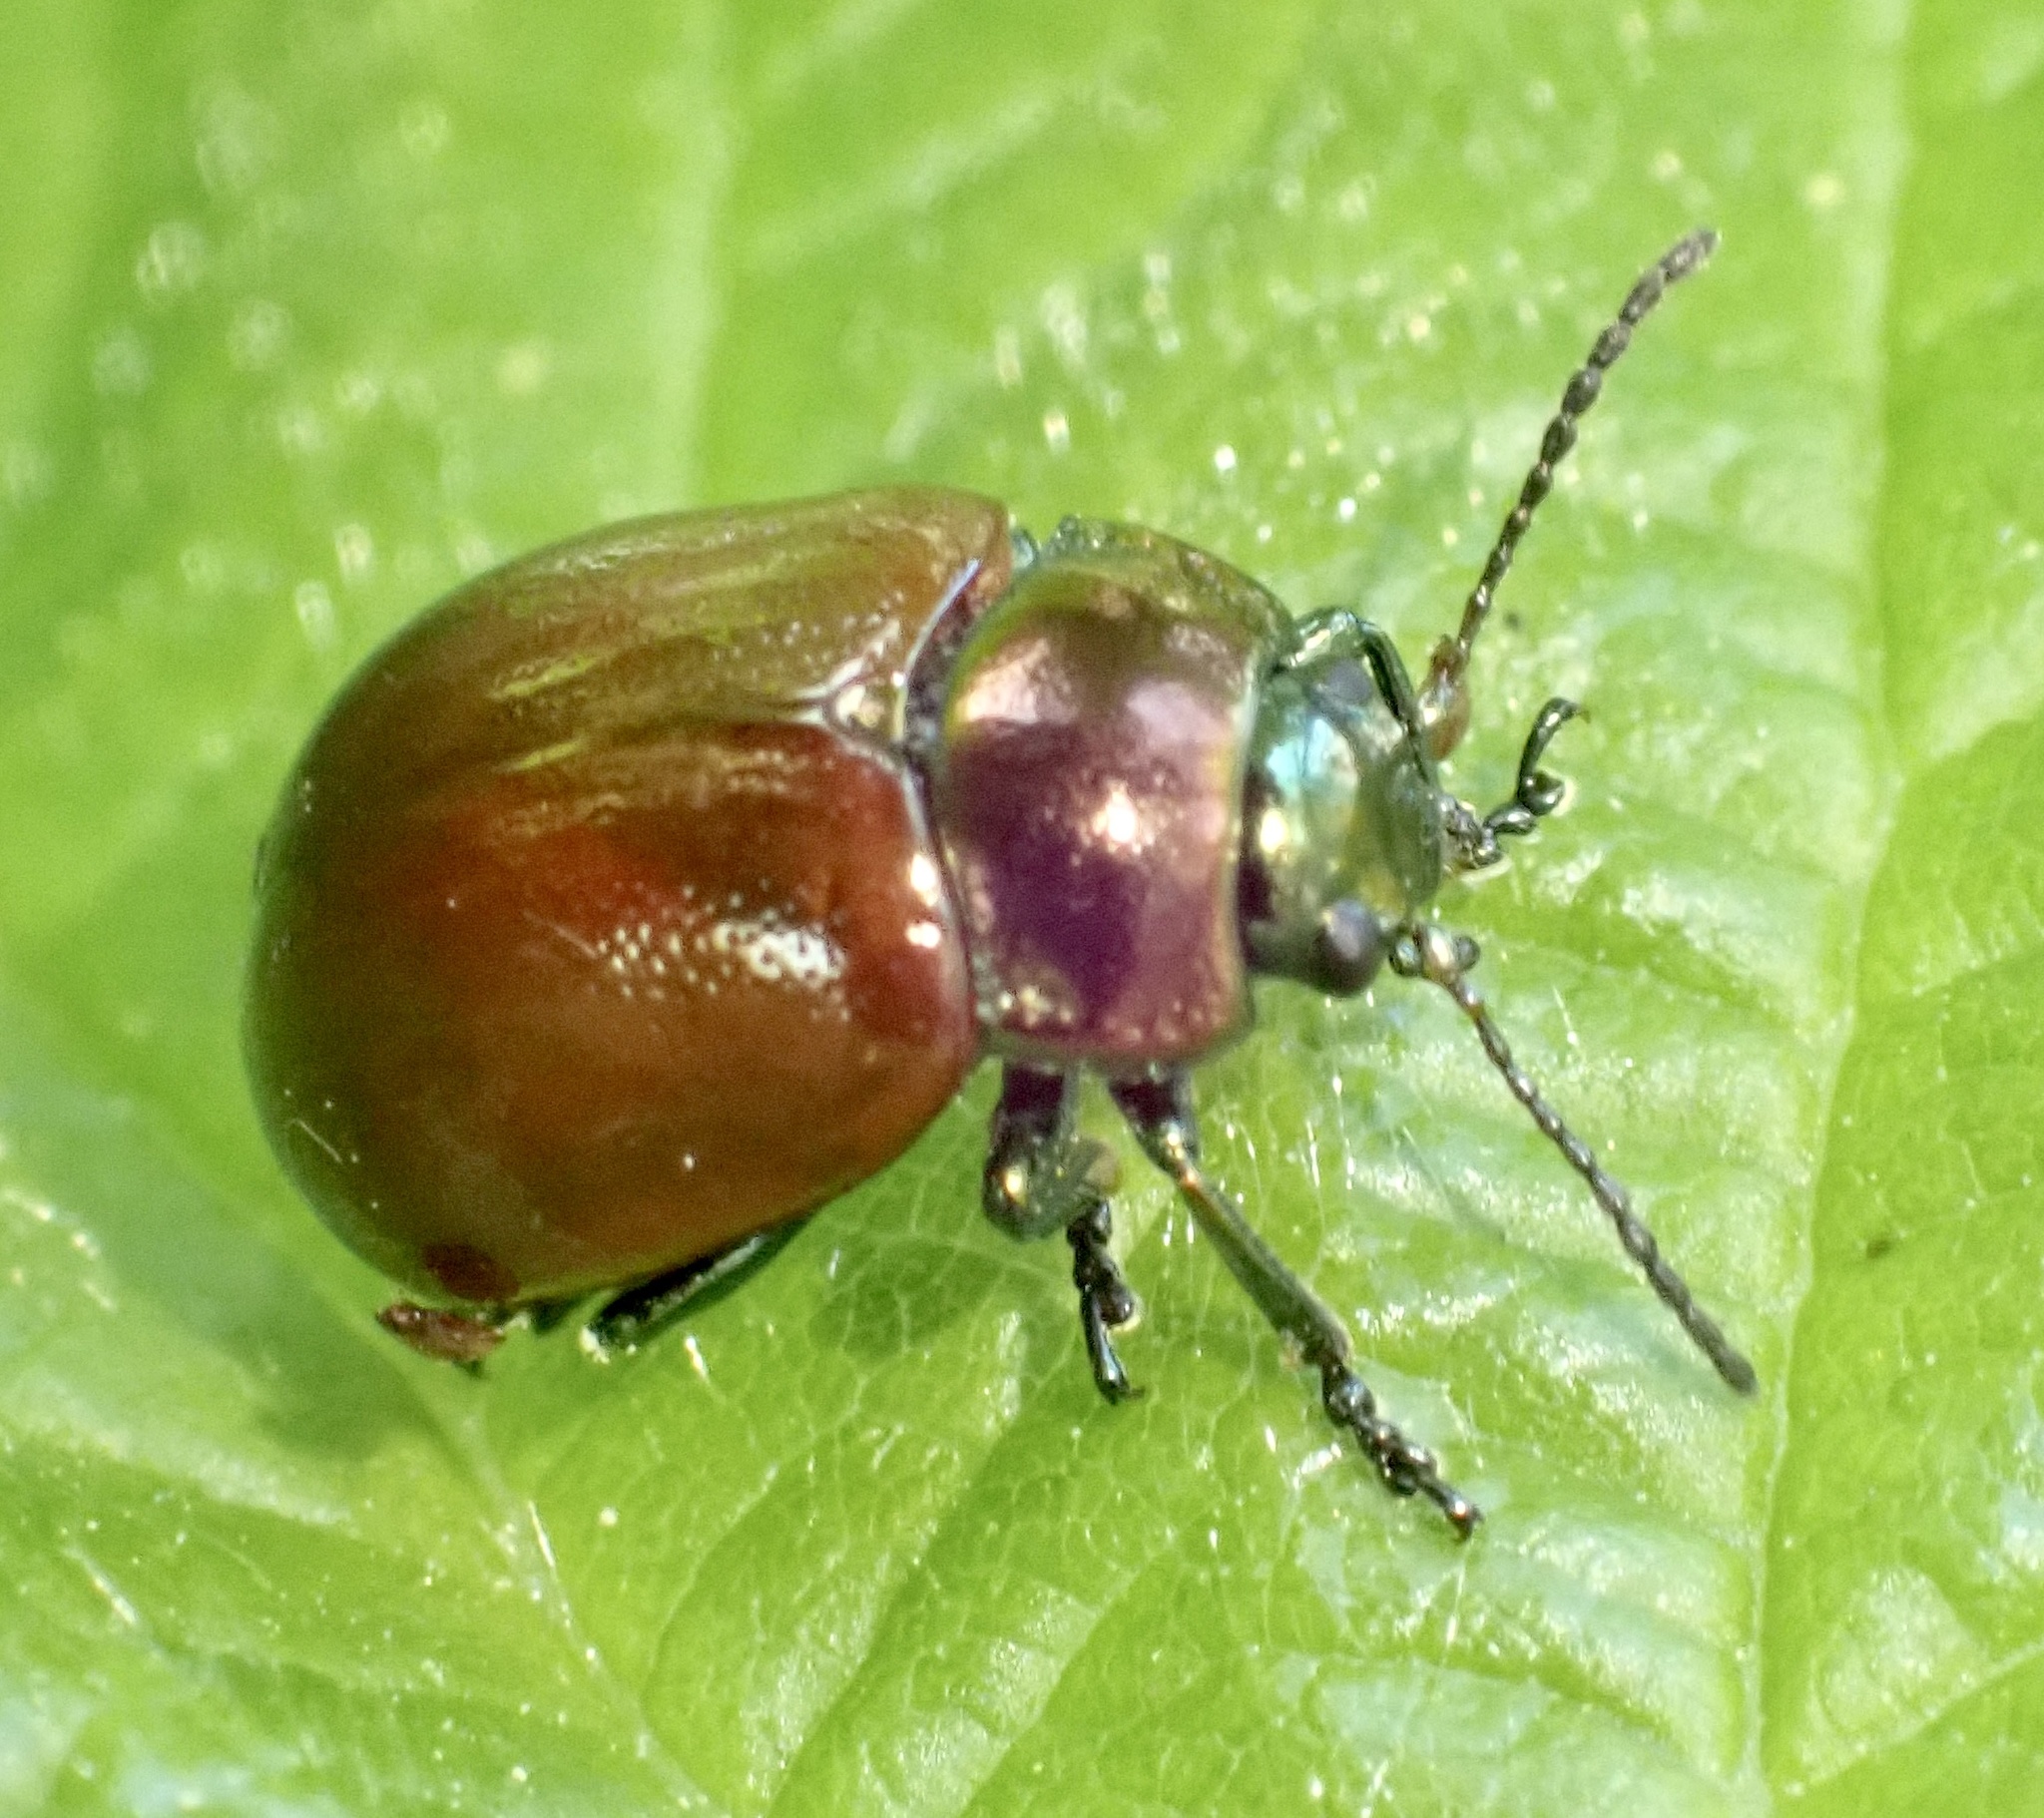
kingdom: Animalia
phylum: Arthropoda
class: Insecta
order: Coleoptera
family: Chrysomelidae
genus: Chrysomela
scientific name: Chrysomela polita
